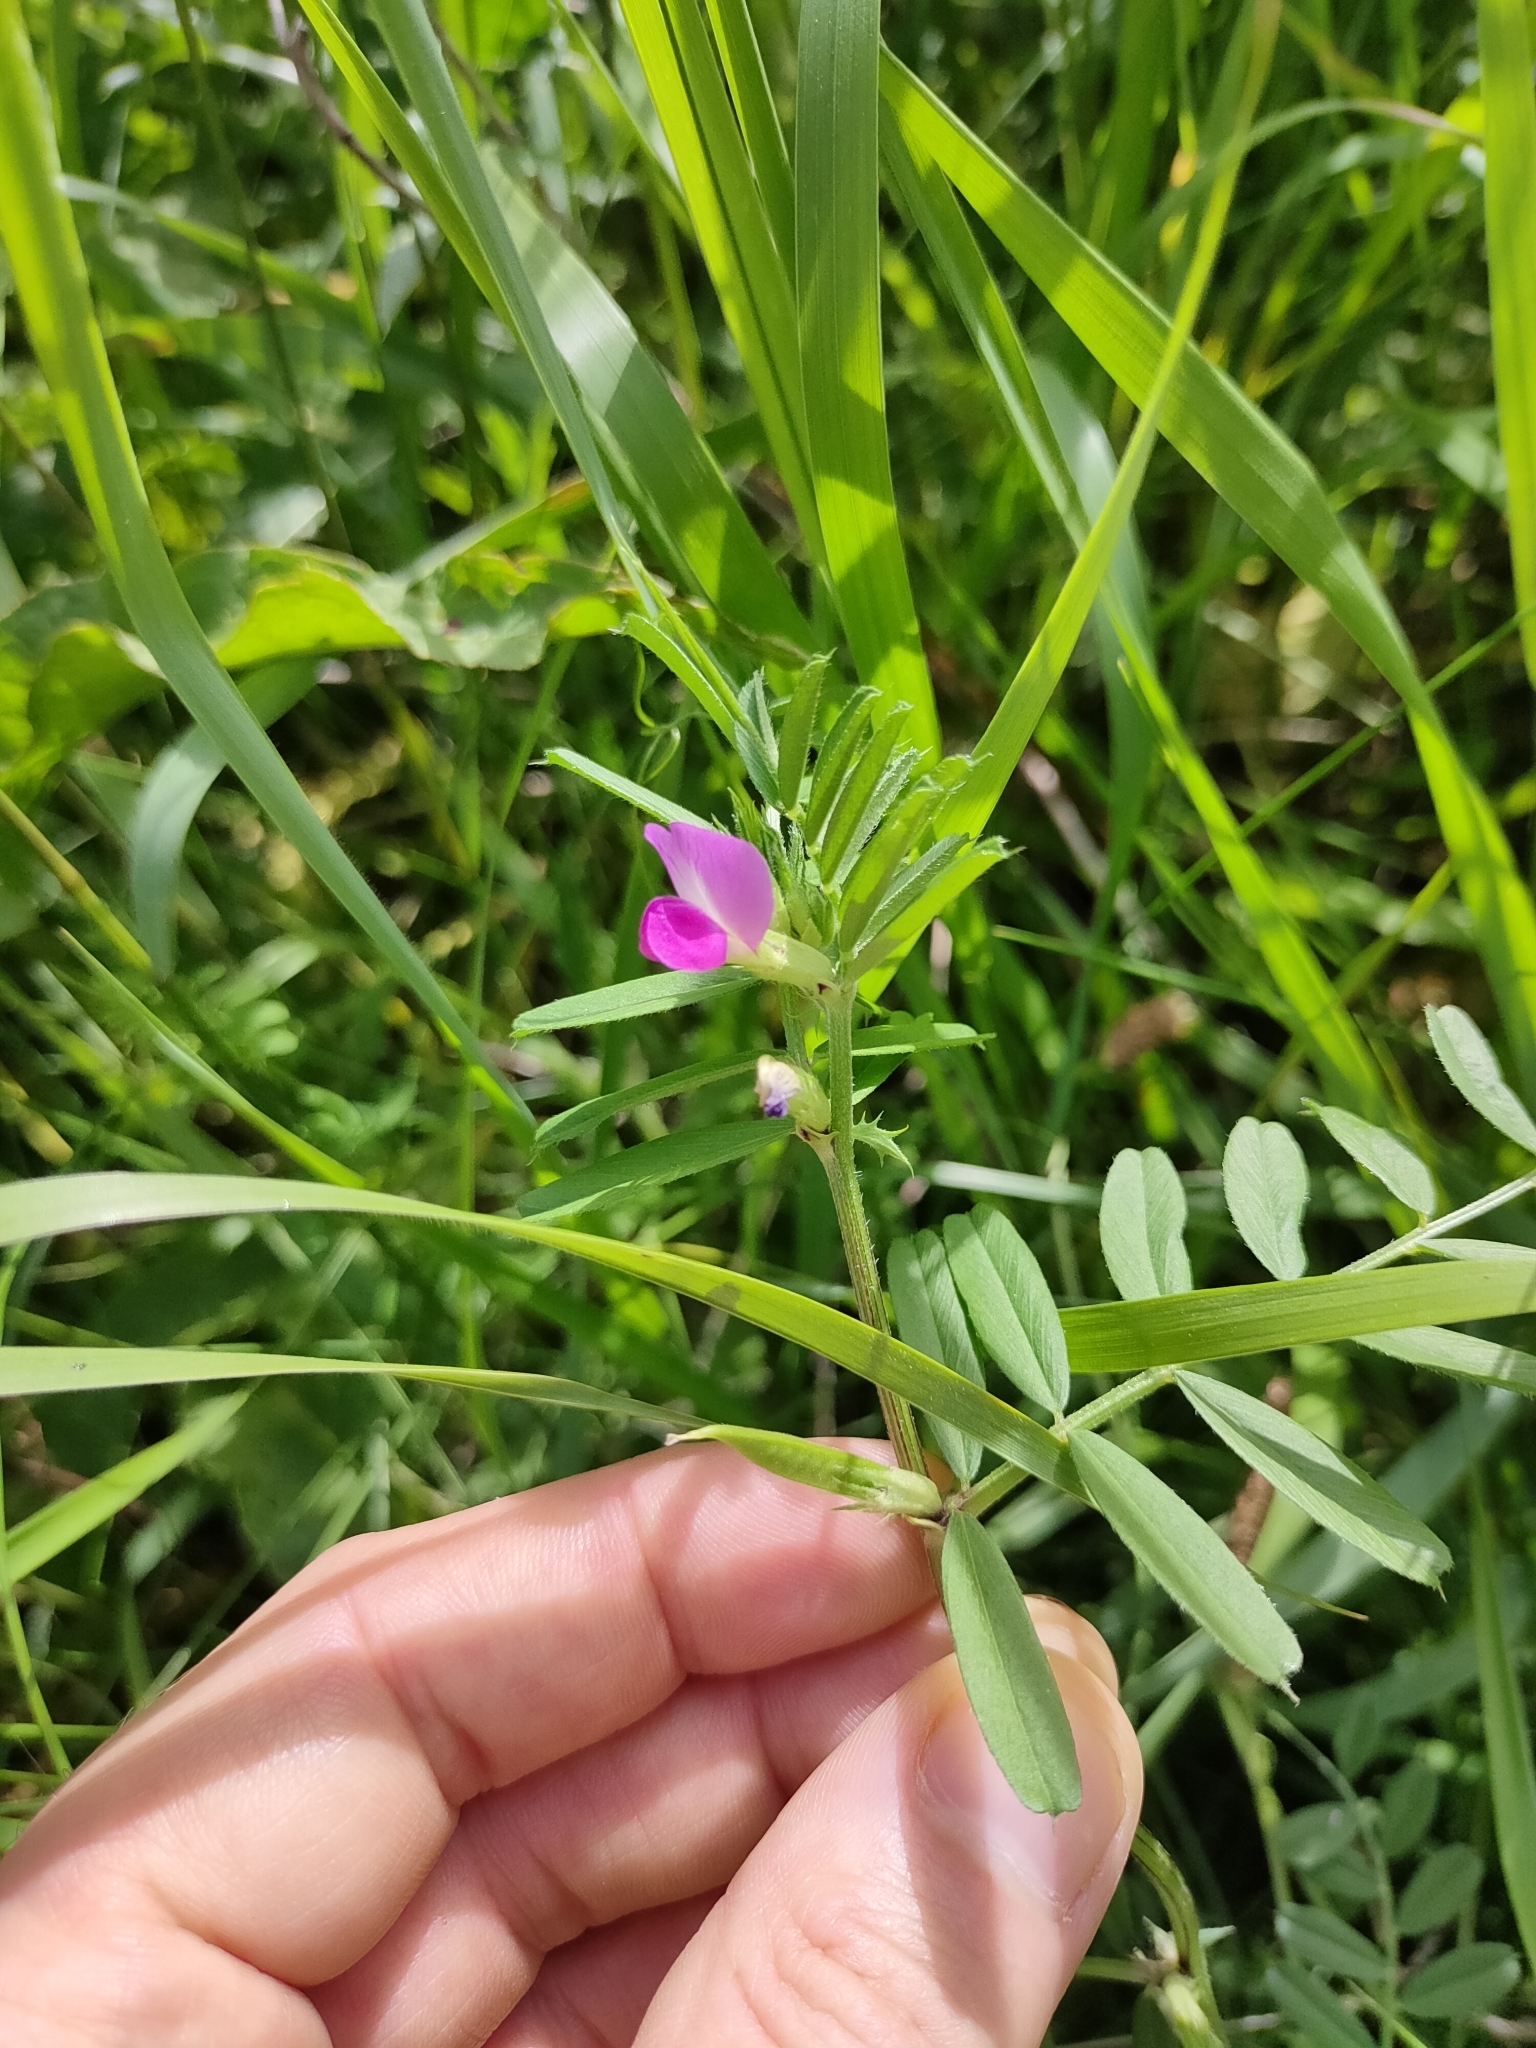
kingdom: Plantae
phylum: Tracheophyta
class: Magnoliopsida
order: Fabales
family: Fabaceae
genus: Vicia
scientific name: Vicia sativa
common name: Garden vetch
